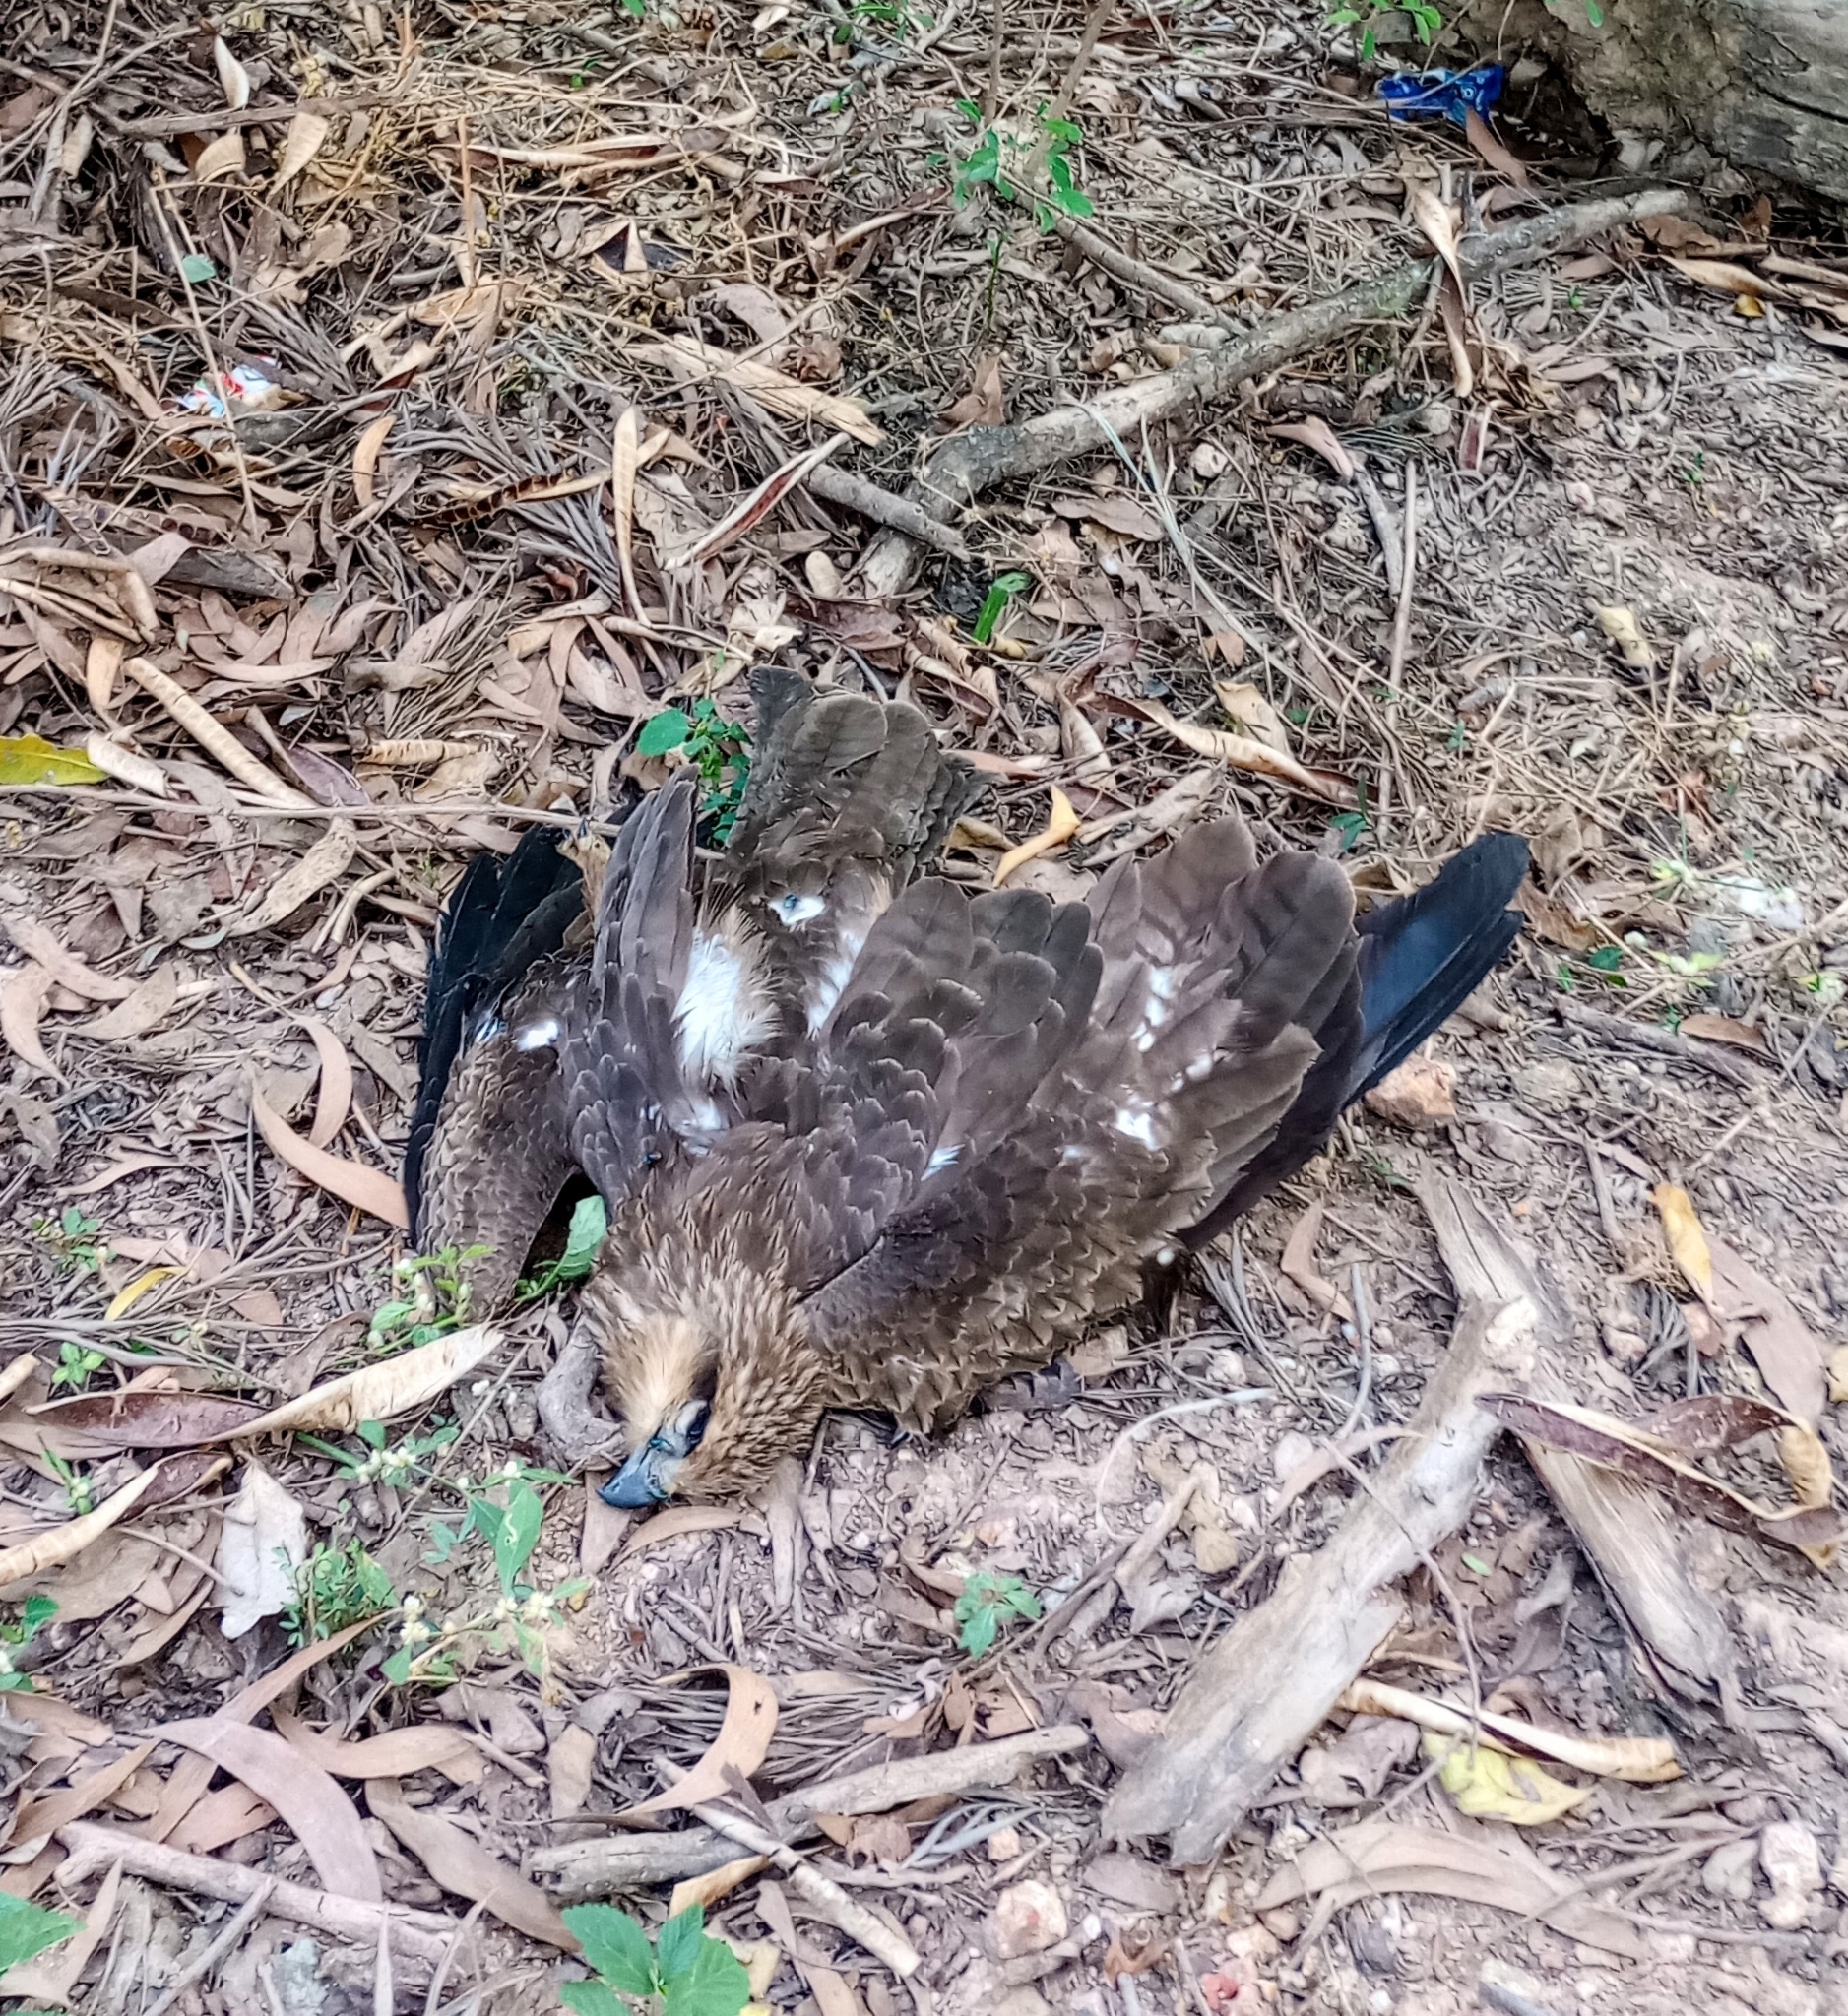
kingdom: Animalia
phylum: Chordata
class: Aves
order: Accipitriformes
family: Accipitridae
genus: Milvus
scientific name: Milvus migrans
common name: Black kite
